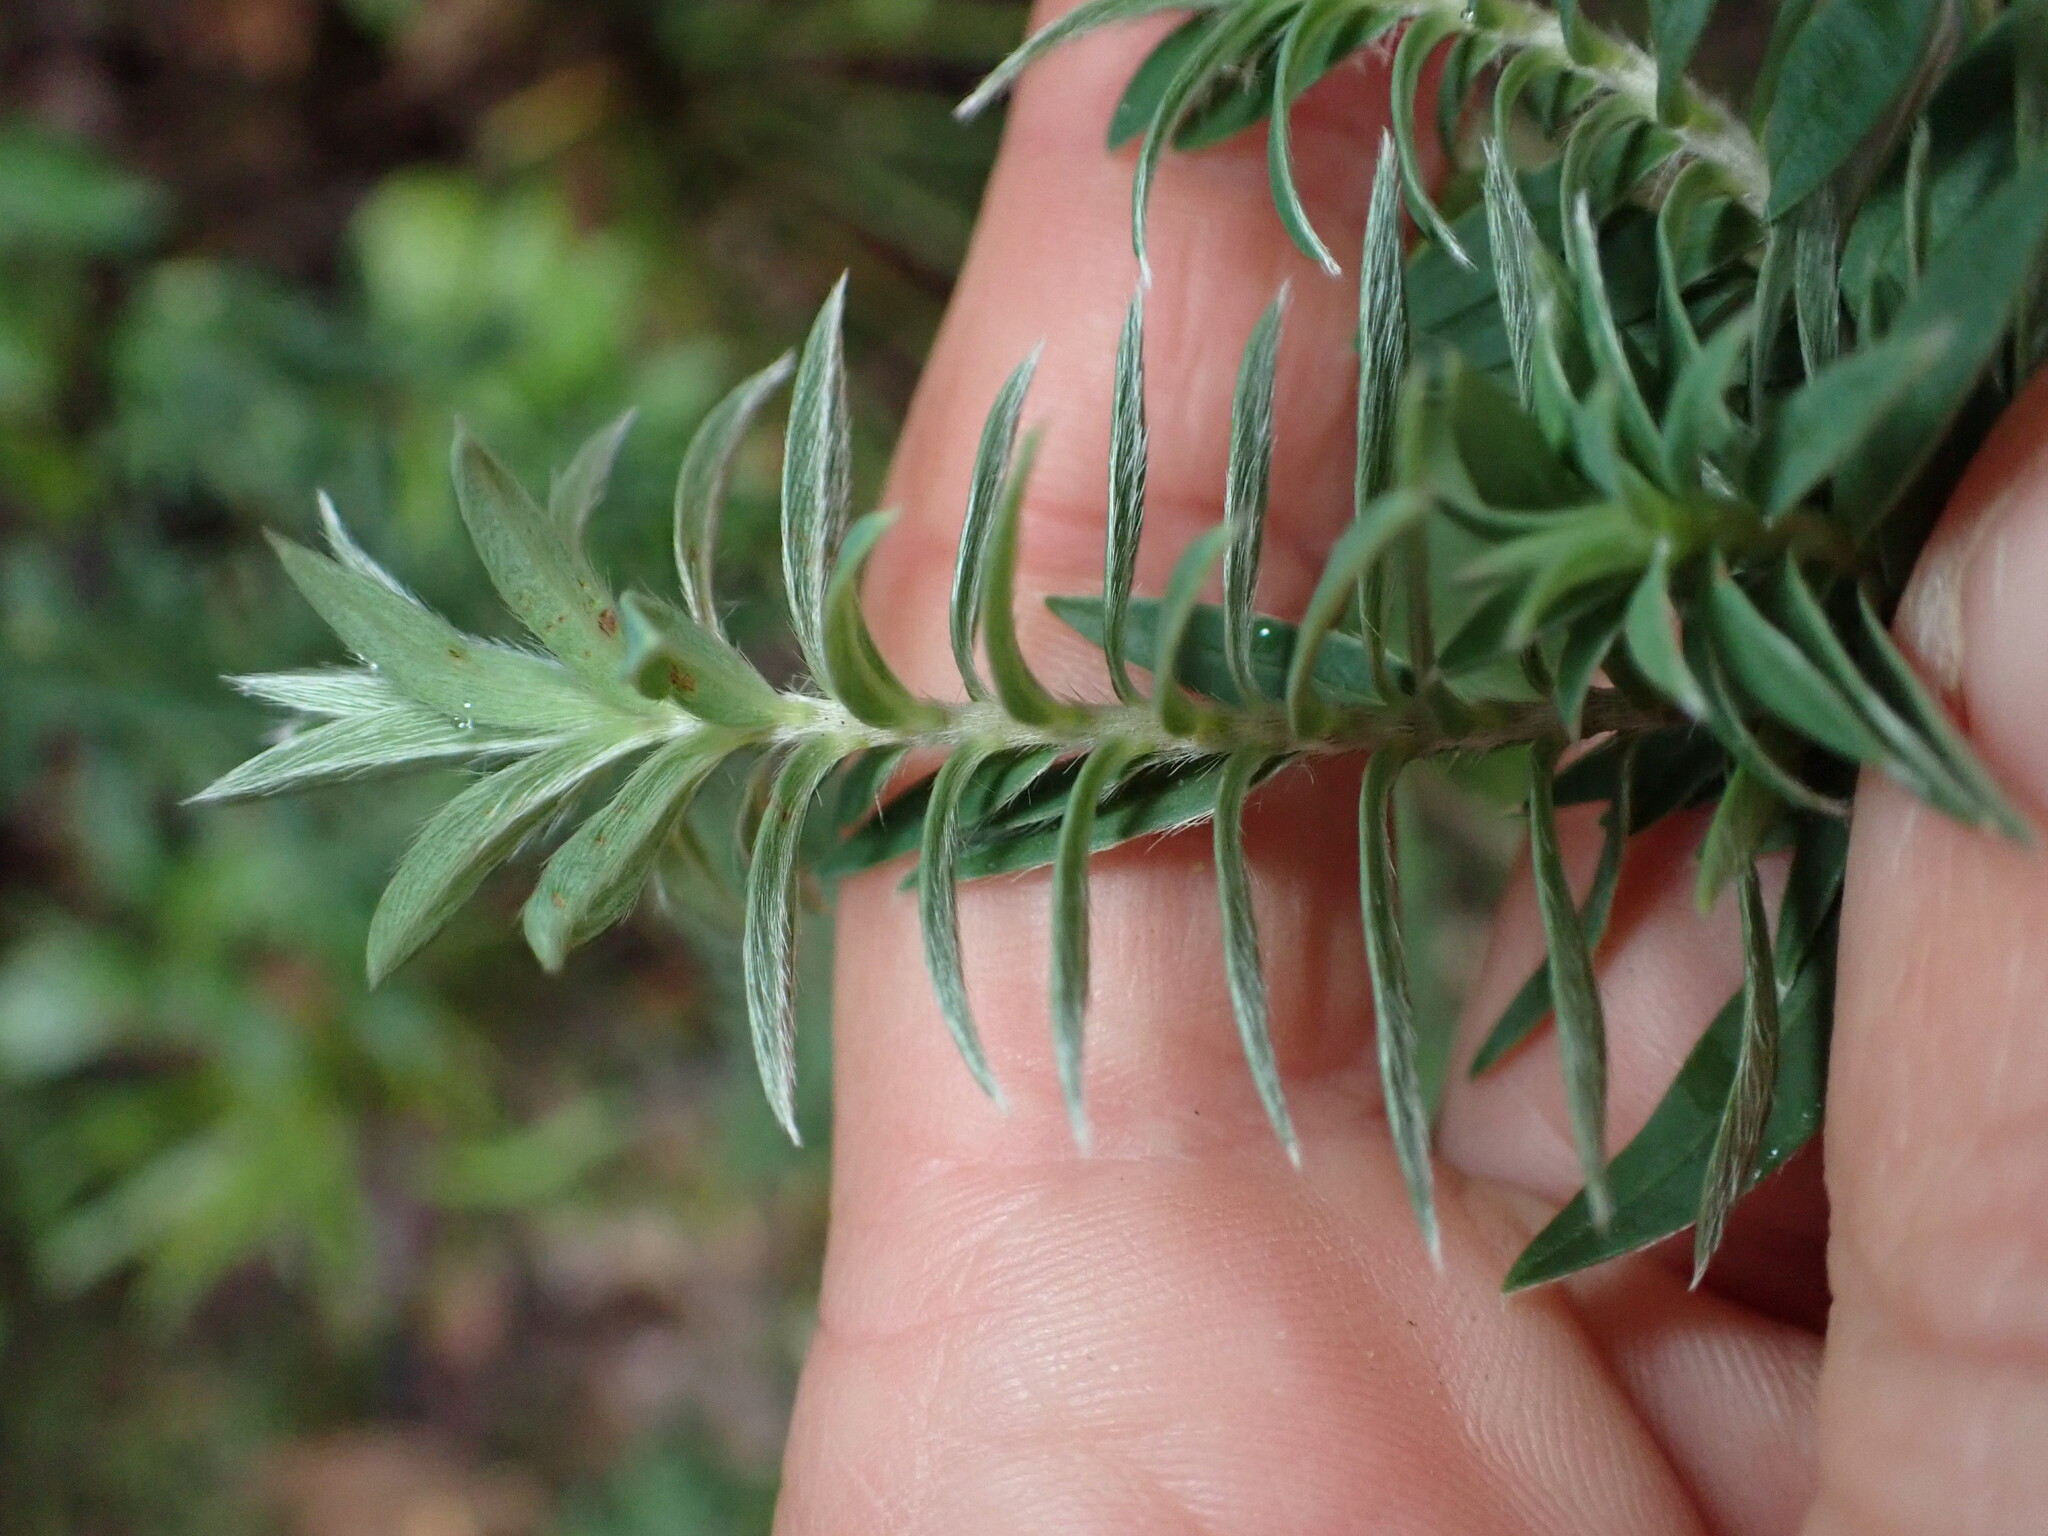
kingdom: Plantae
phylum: Tracheophyta
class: Magnoliopsida
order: Malvales
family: Thymelaeaceae
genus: Pimelea
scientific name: Pimelea tomentosa
